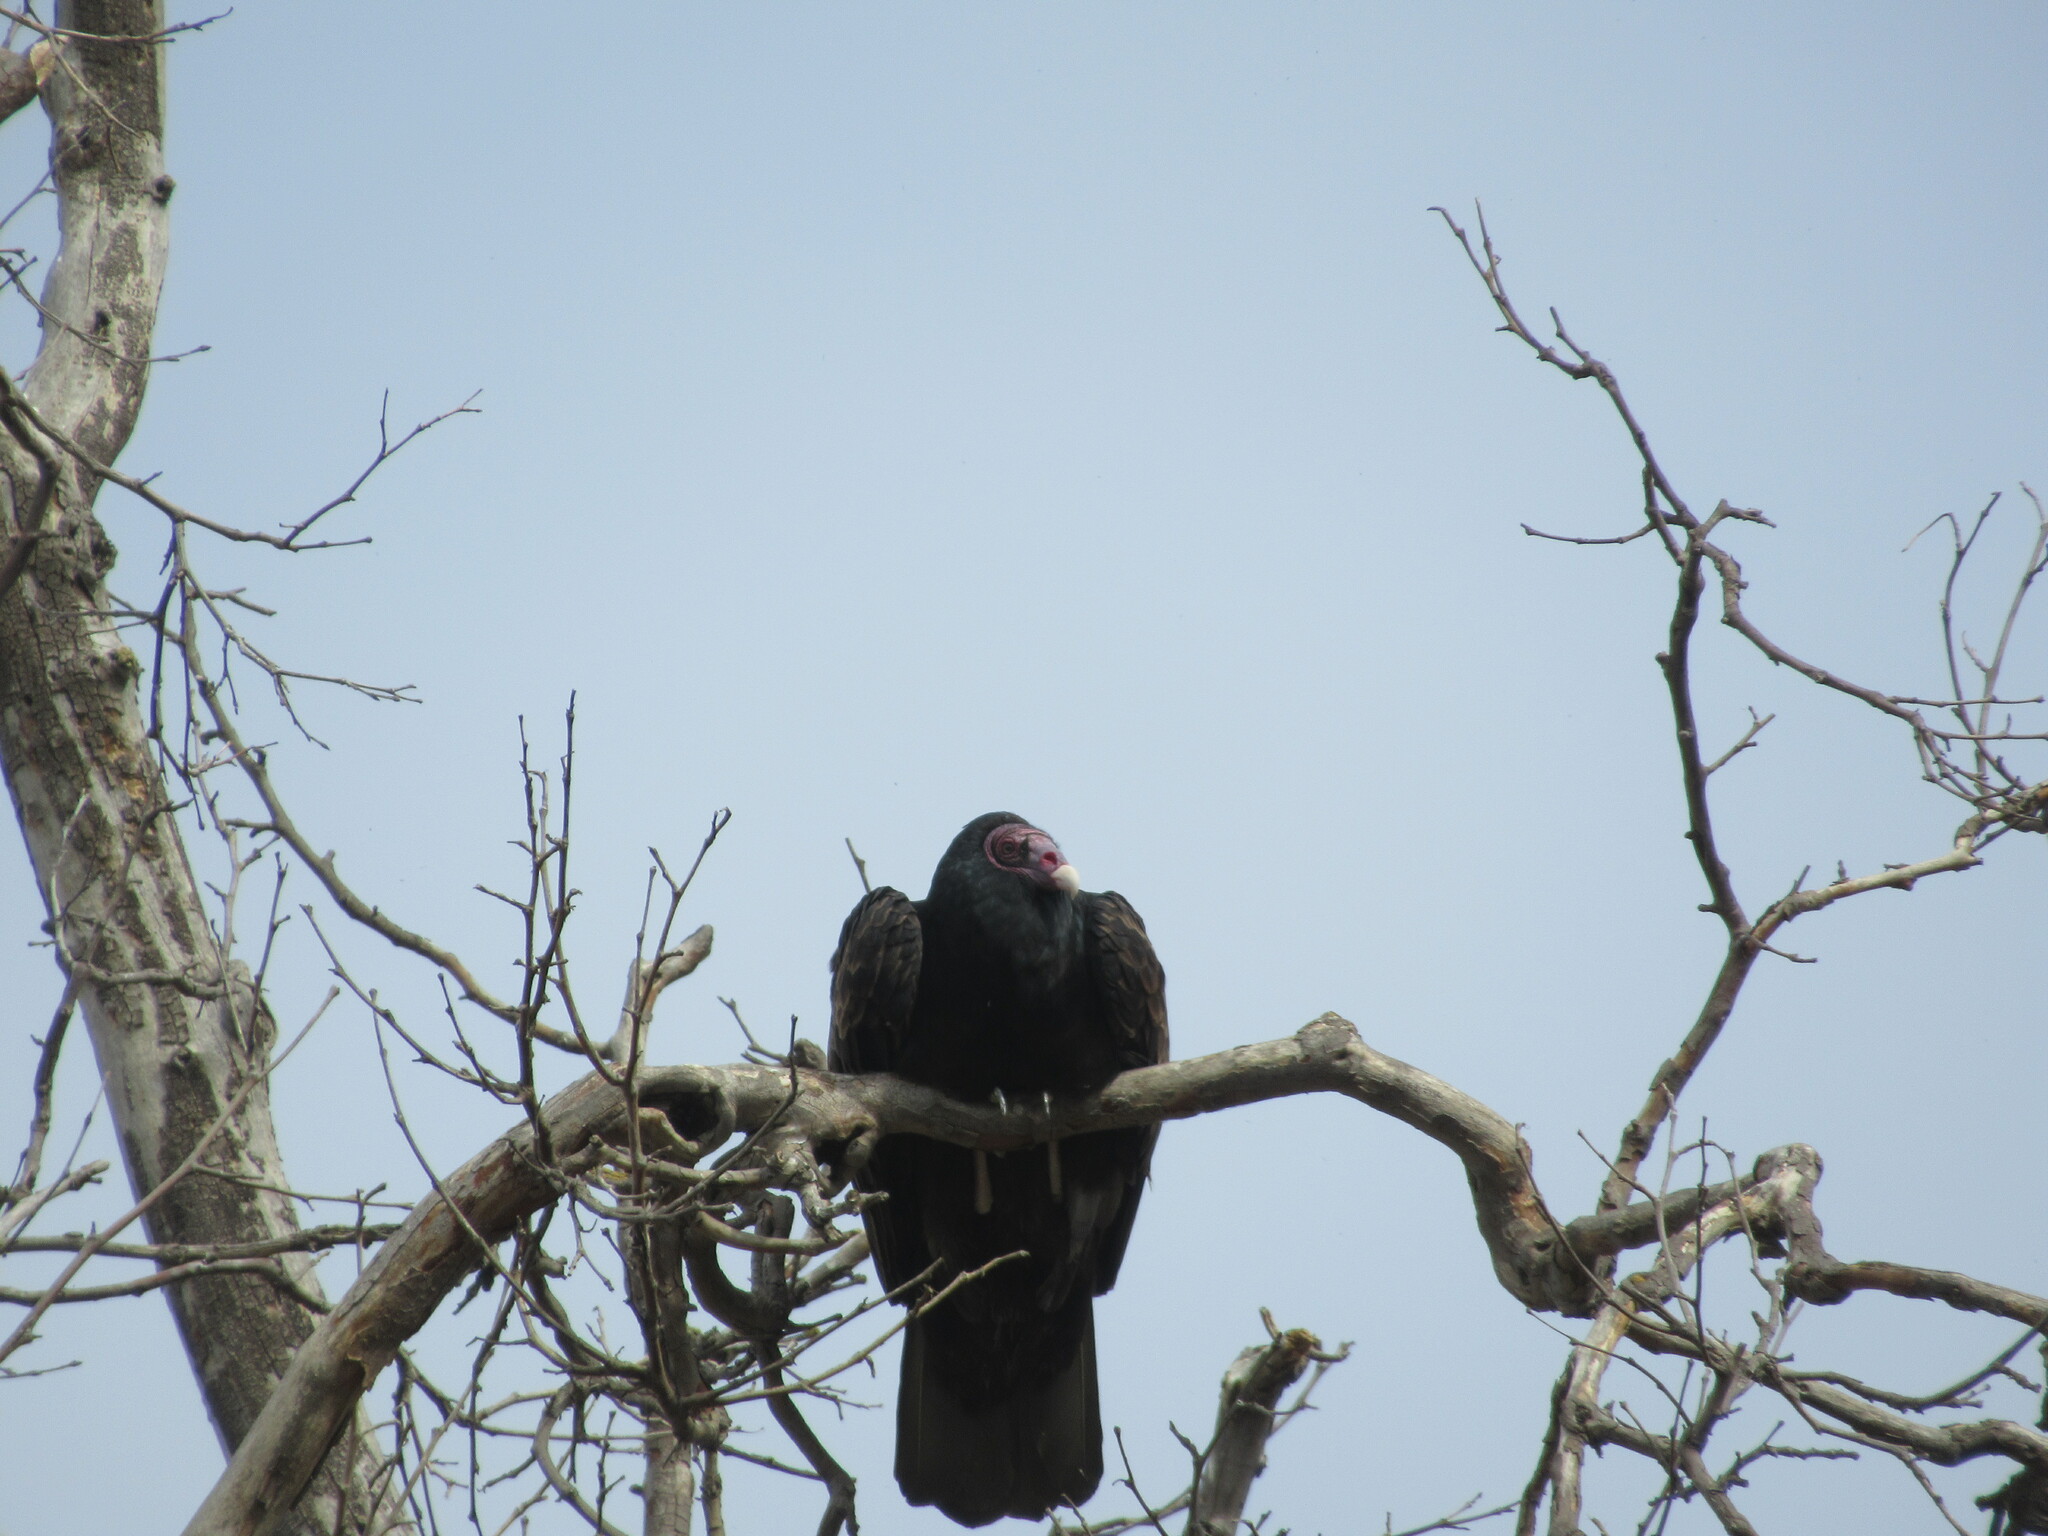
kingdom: Animalia
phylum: Chordata
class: Aves
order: Accipitriformes
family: Cathartidae
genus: Cathartes
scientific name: Cathartes aura
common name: Turkey vulture
